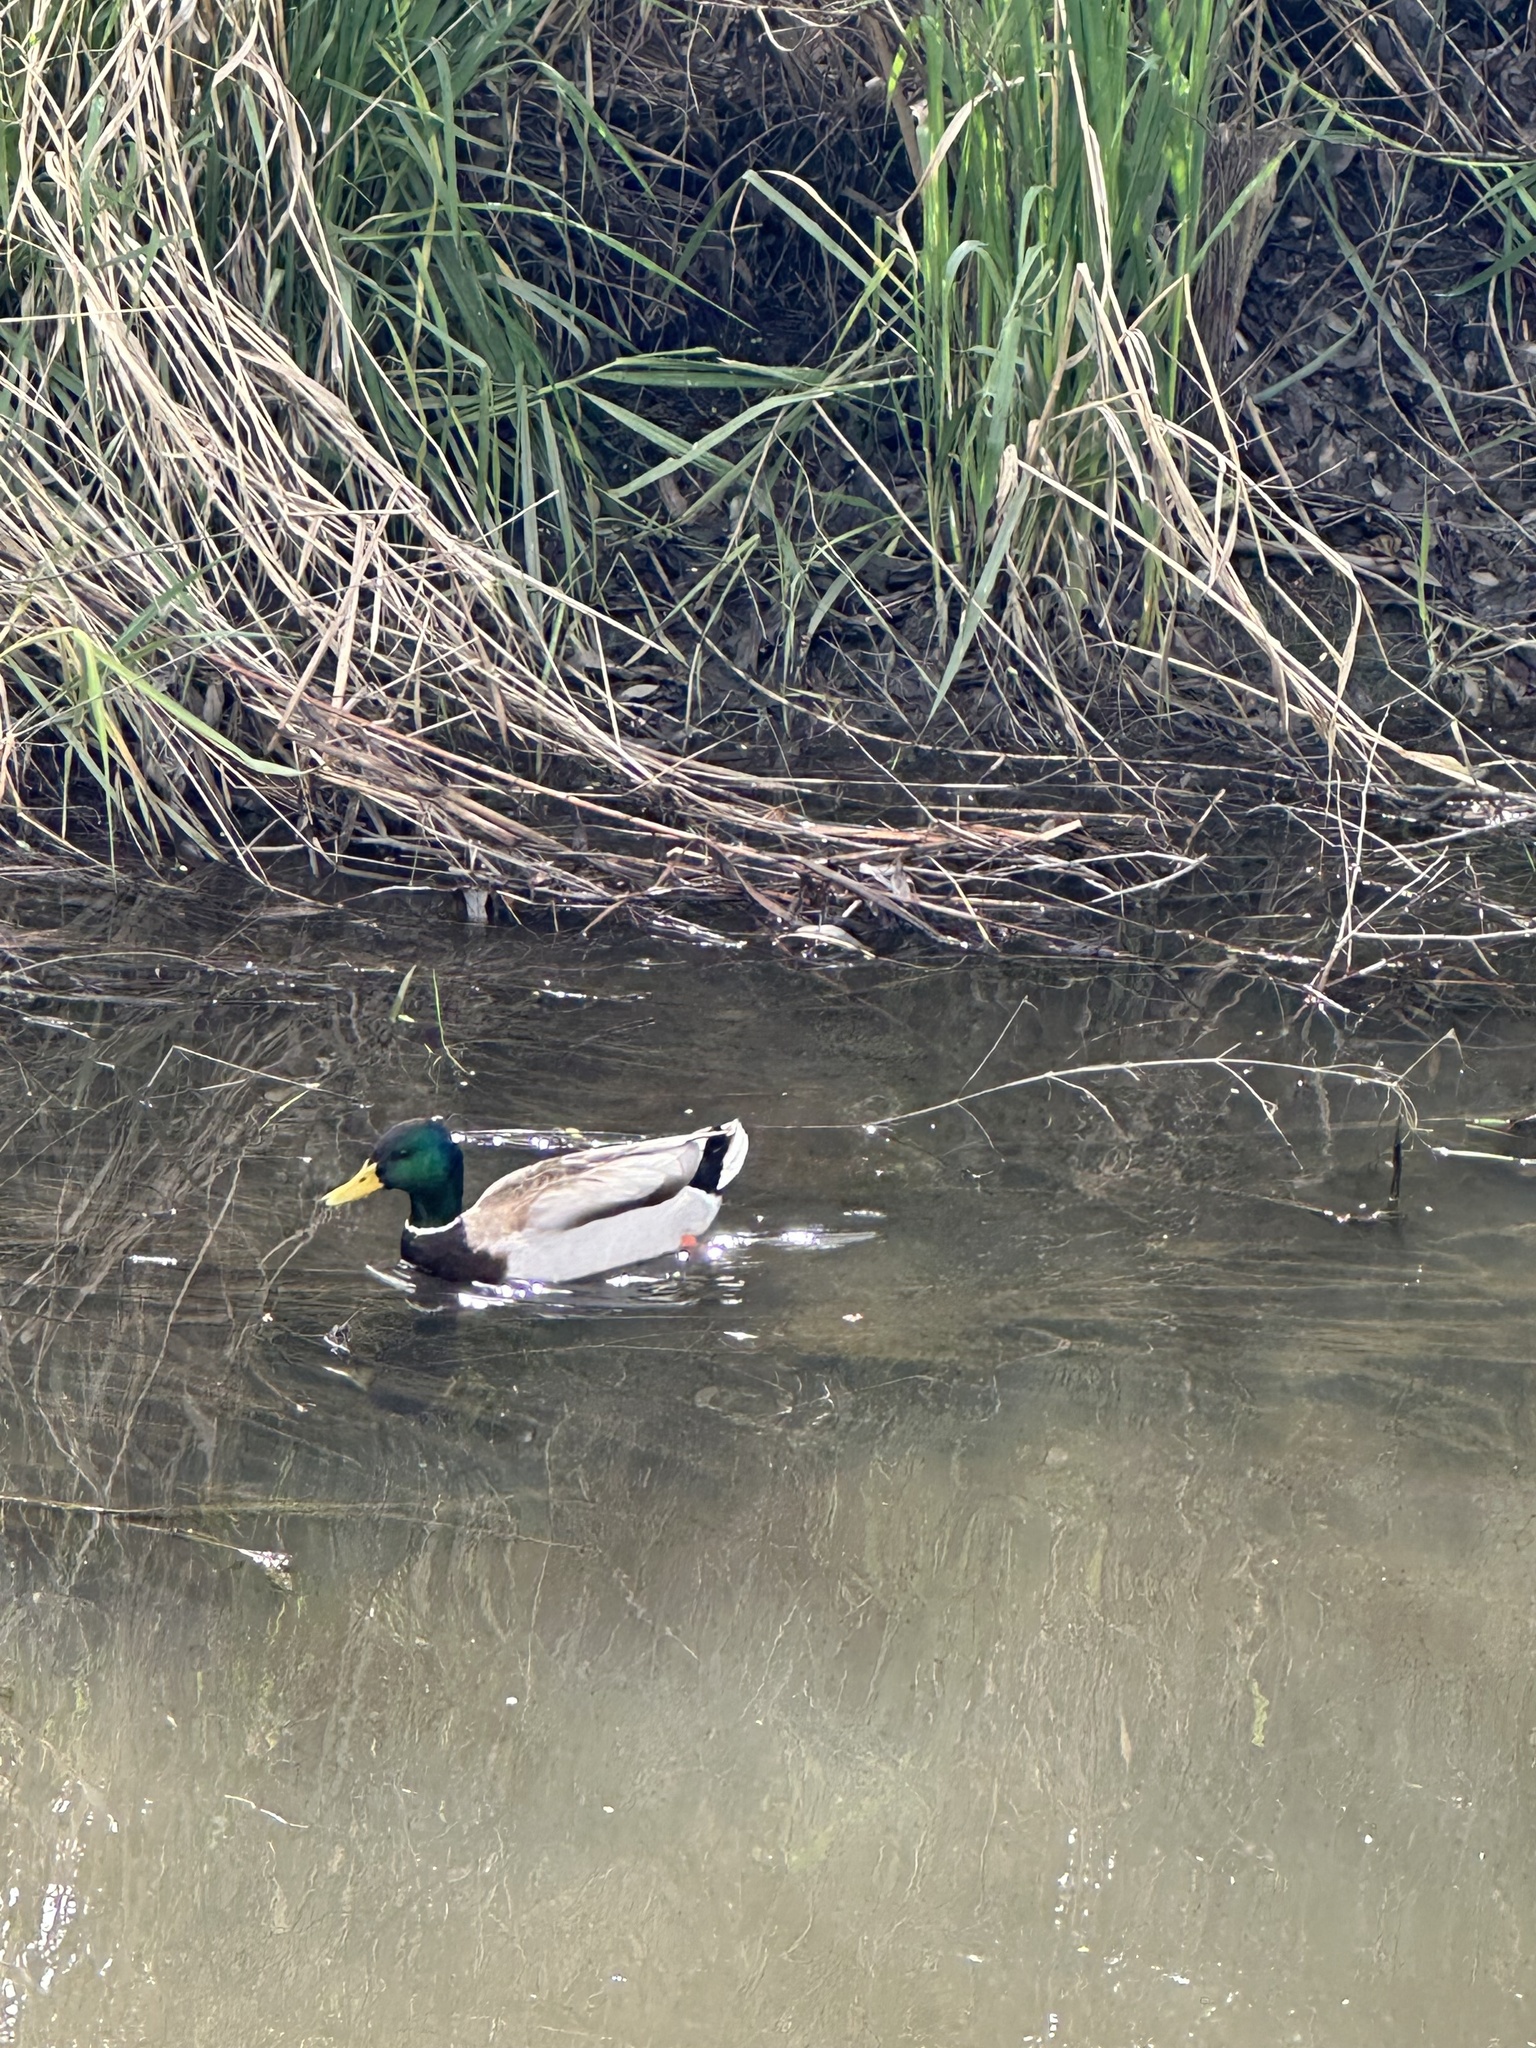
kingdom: Animalia
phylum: Chordata
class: Aves
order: Anseriformes
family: Anatidae
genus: Anas
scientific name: Anas platyrhynchos
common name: Mallard
